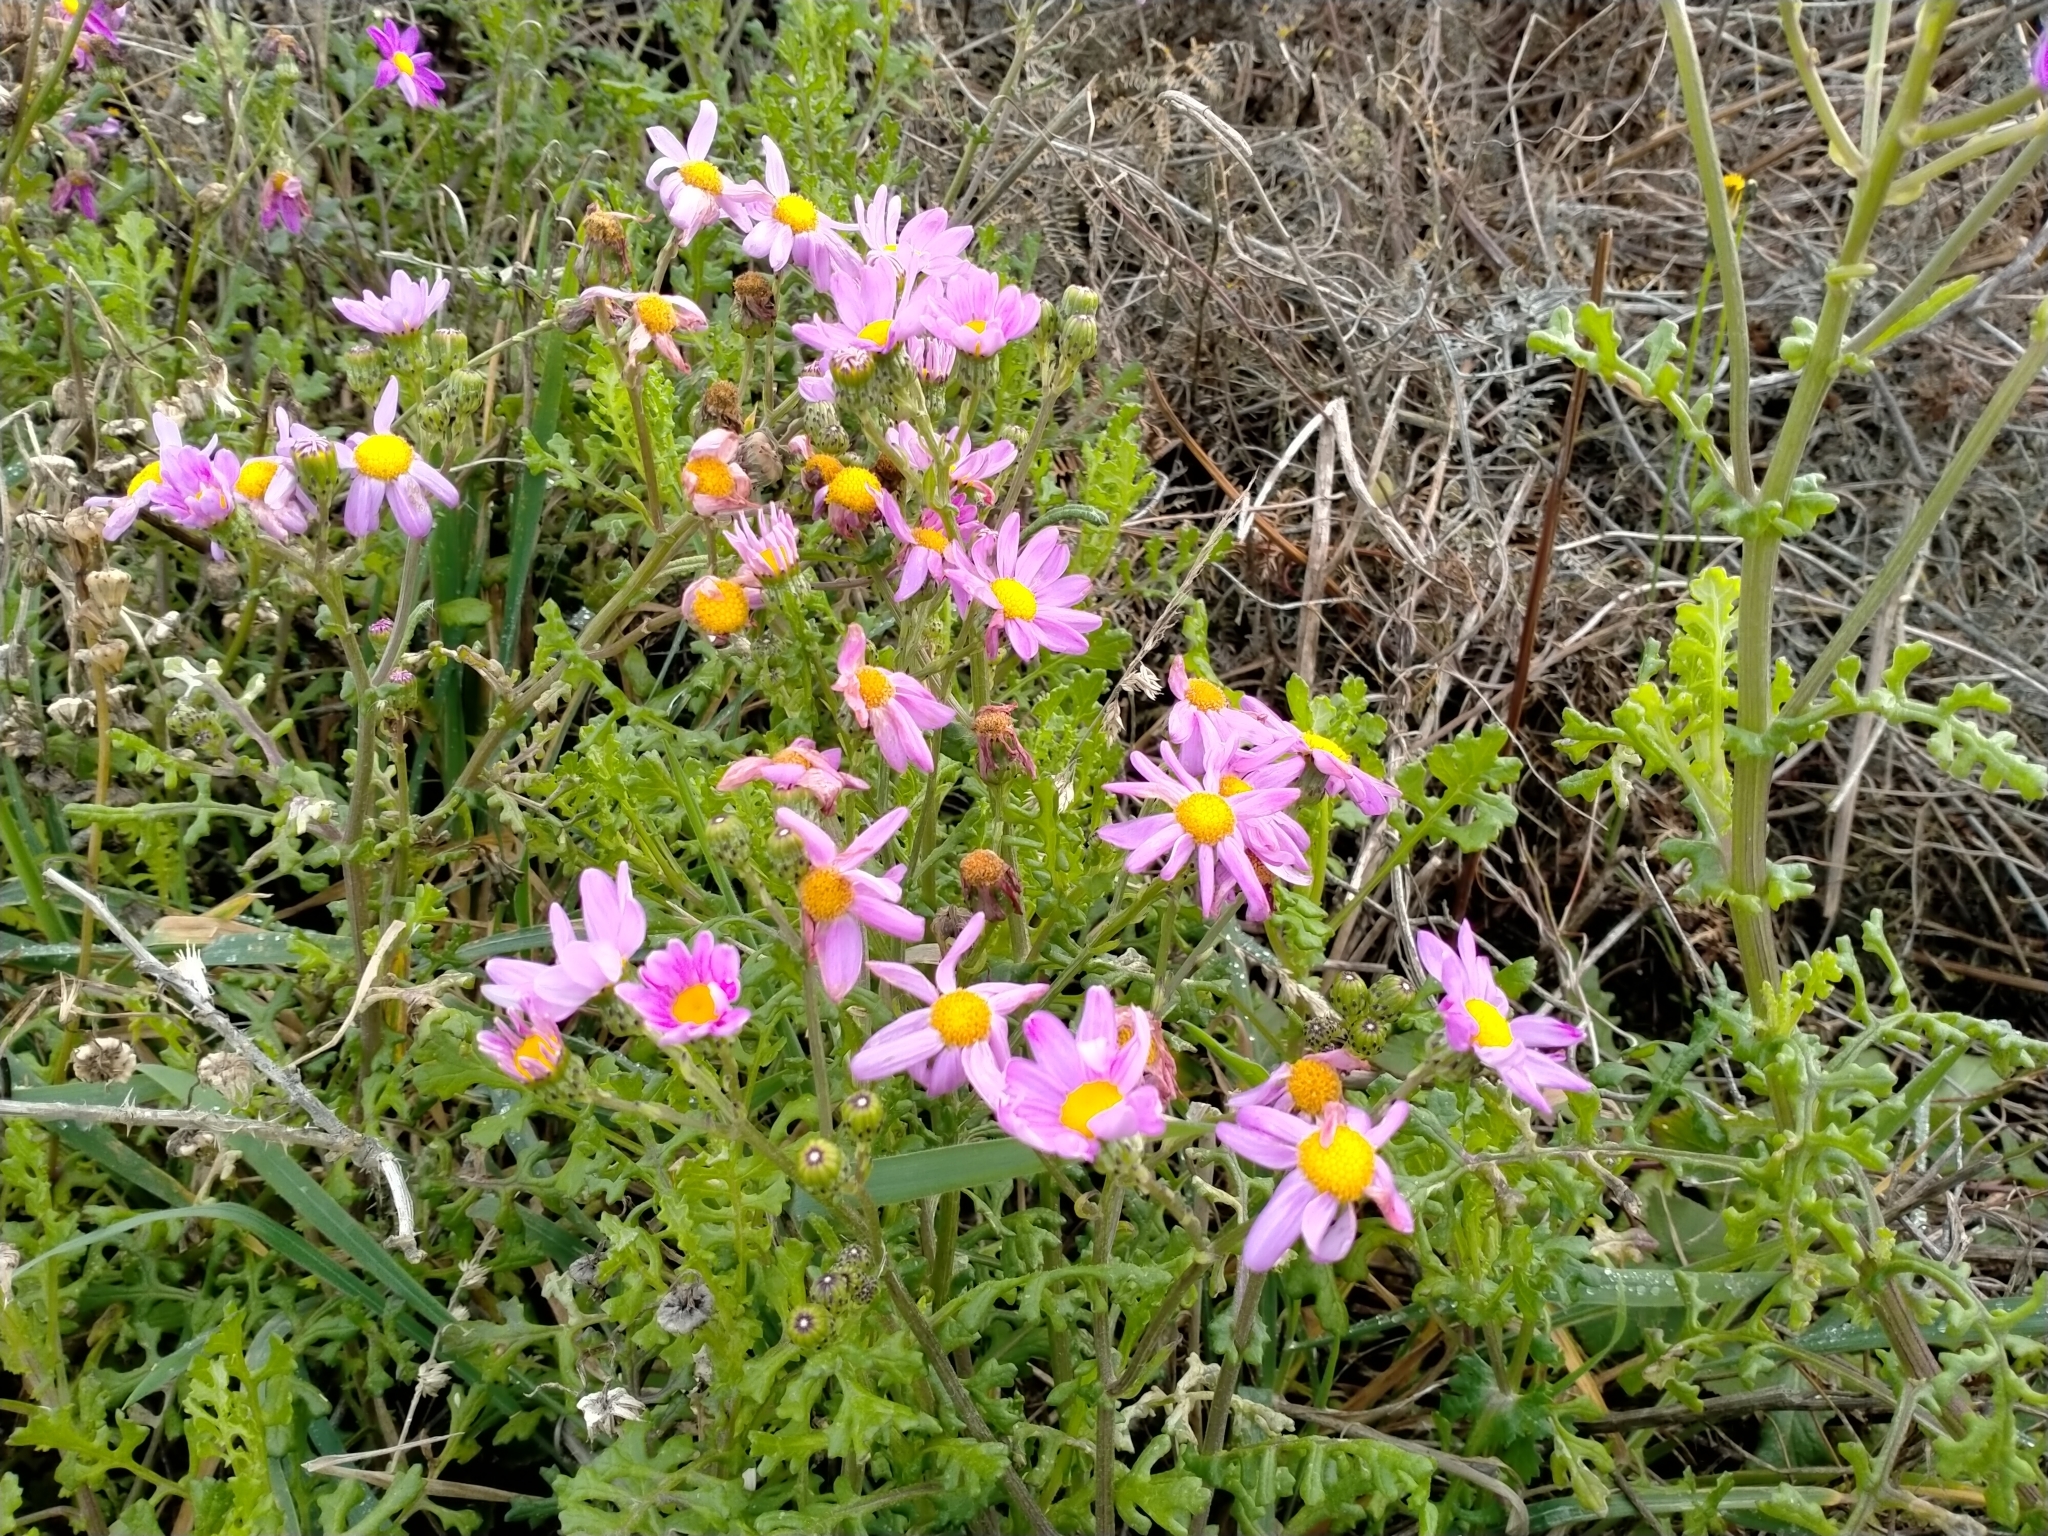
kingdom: Plantae
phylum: Tracheophyta
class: Magnoliopsida
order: Asterales
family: Asteraceae
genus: Senecio
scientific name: Senecio elegans
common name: Purple groundsel
